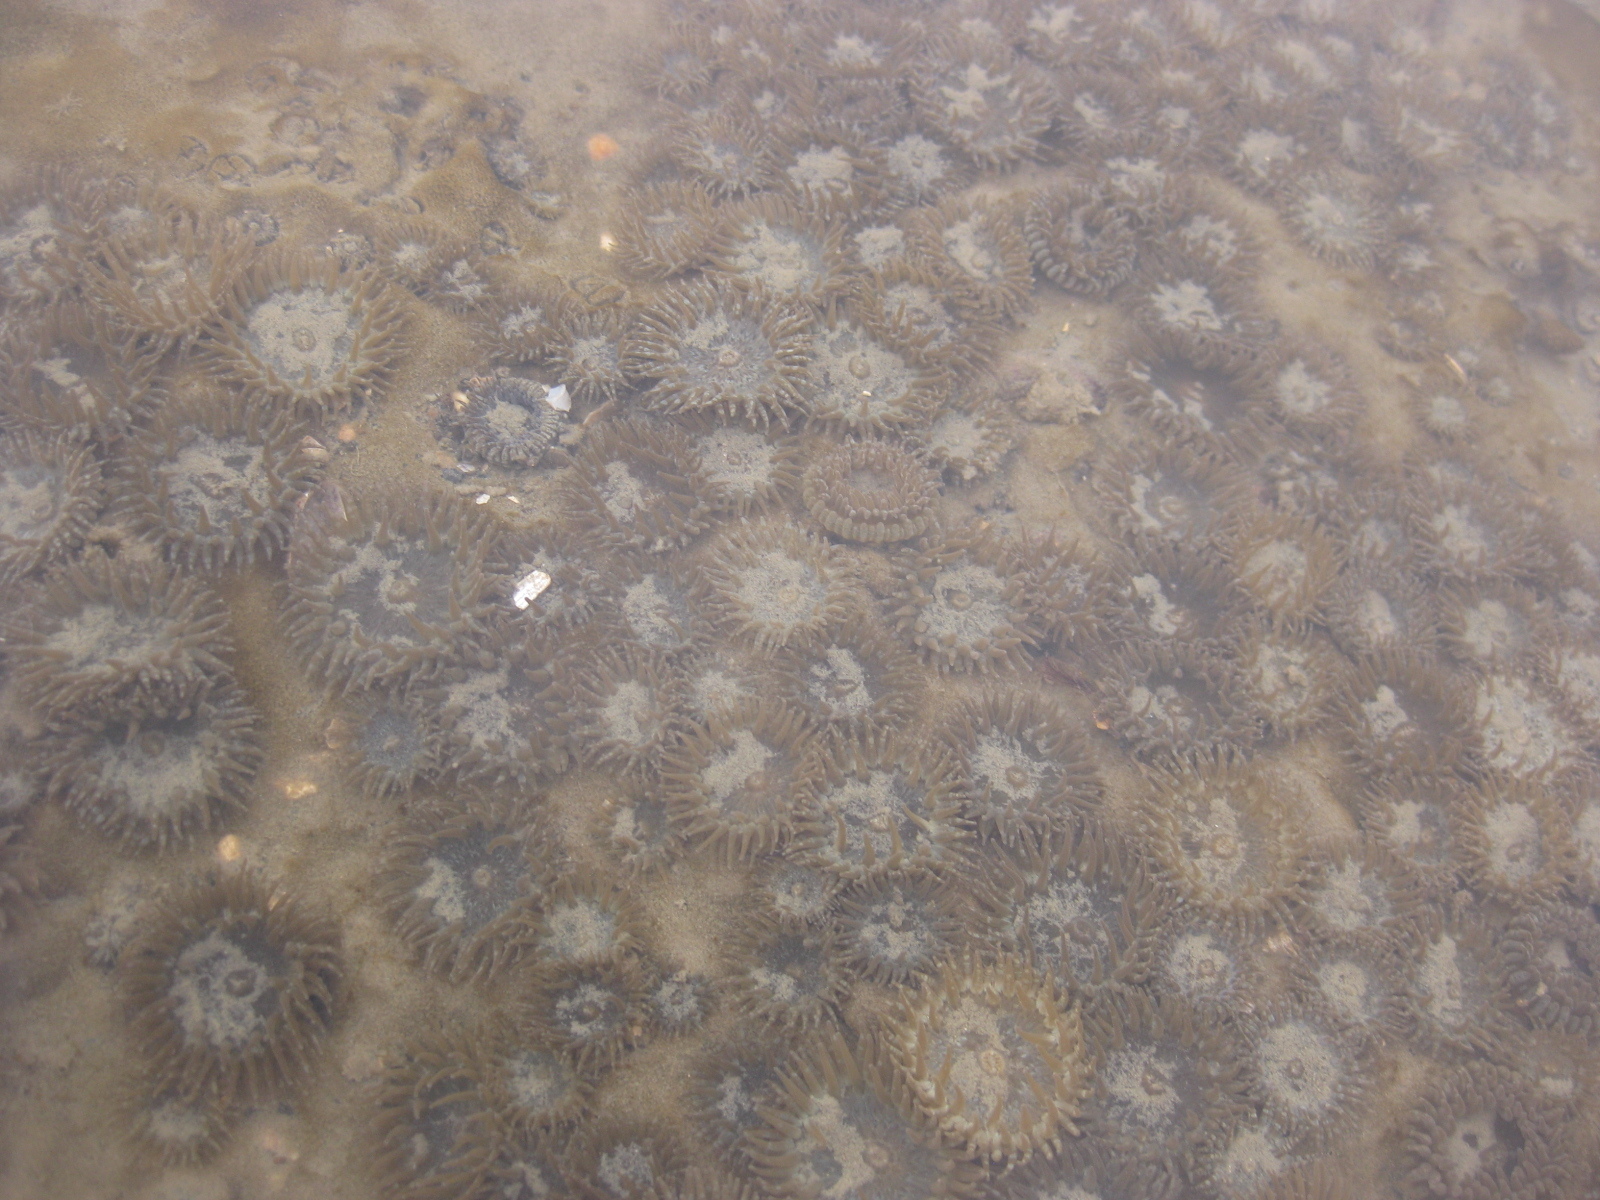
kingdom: Animalia
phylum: Cnidaria
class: Anthozoa
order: Actiniaria
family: Actiniidae
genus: Anthopleura
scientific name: Anthopleura hermaphroditica
